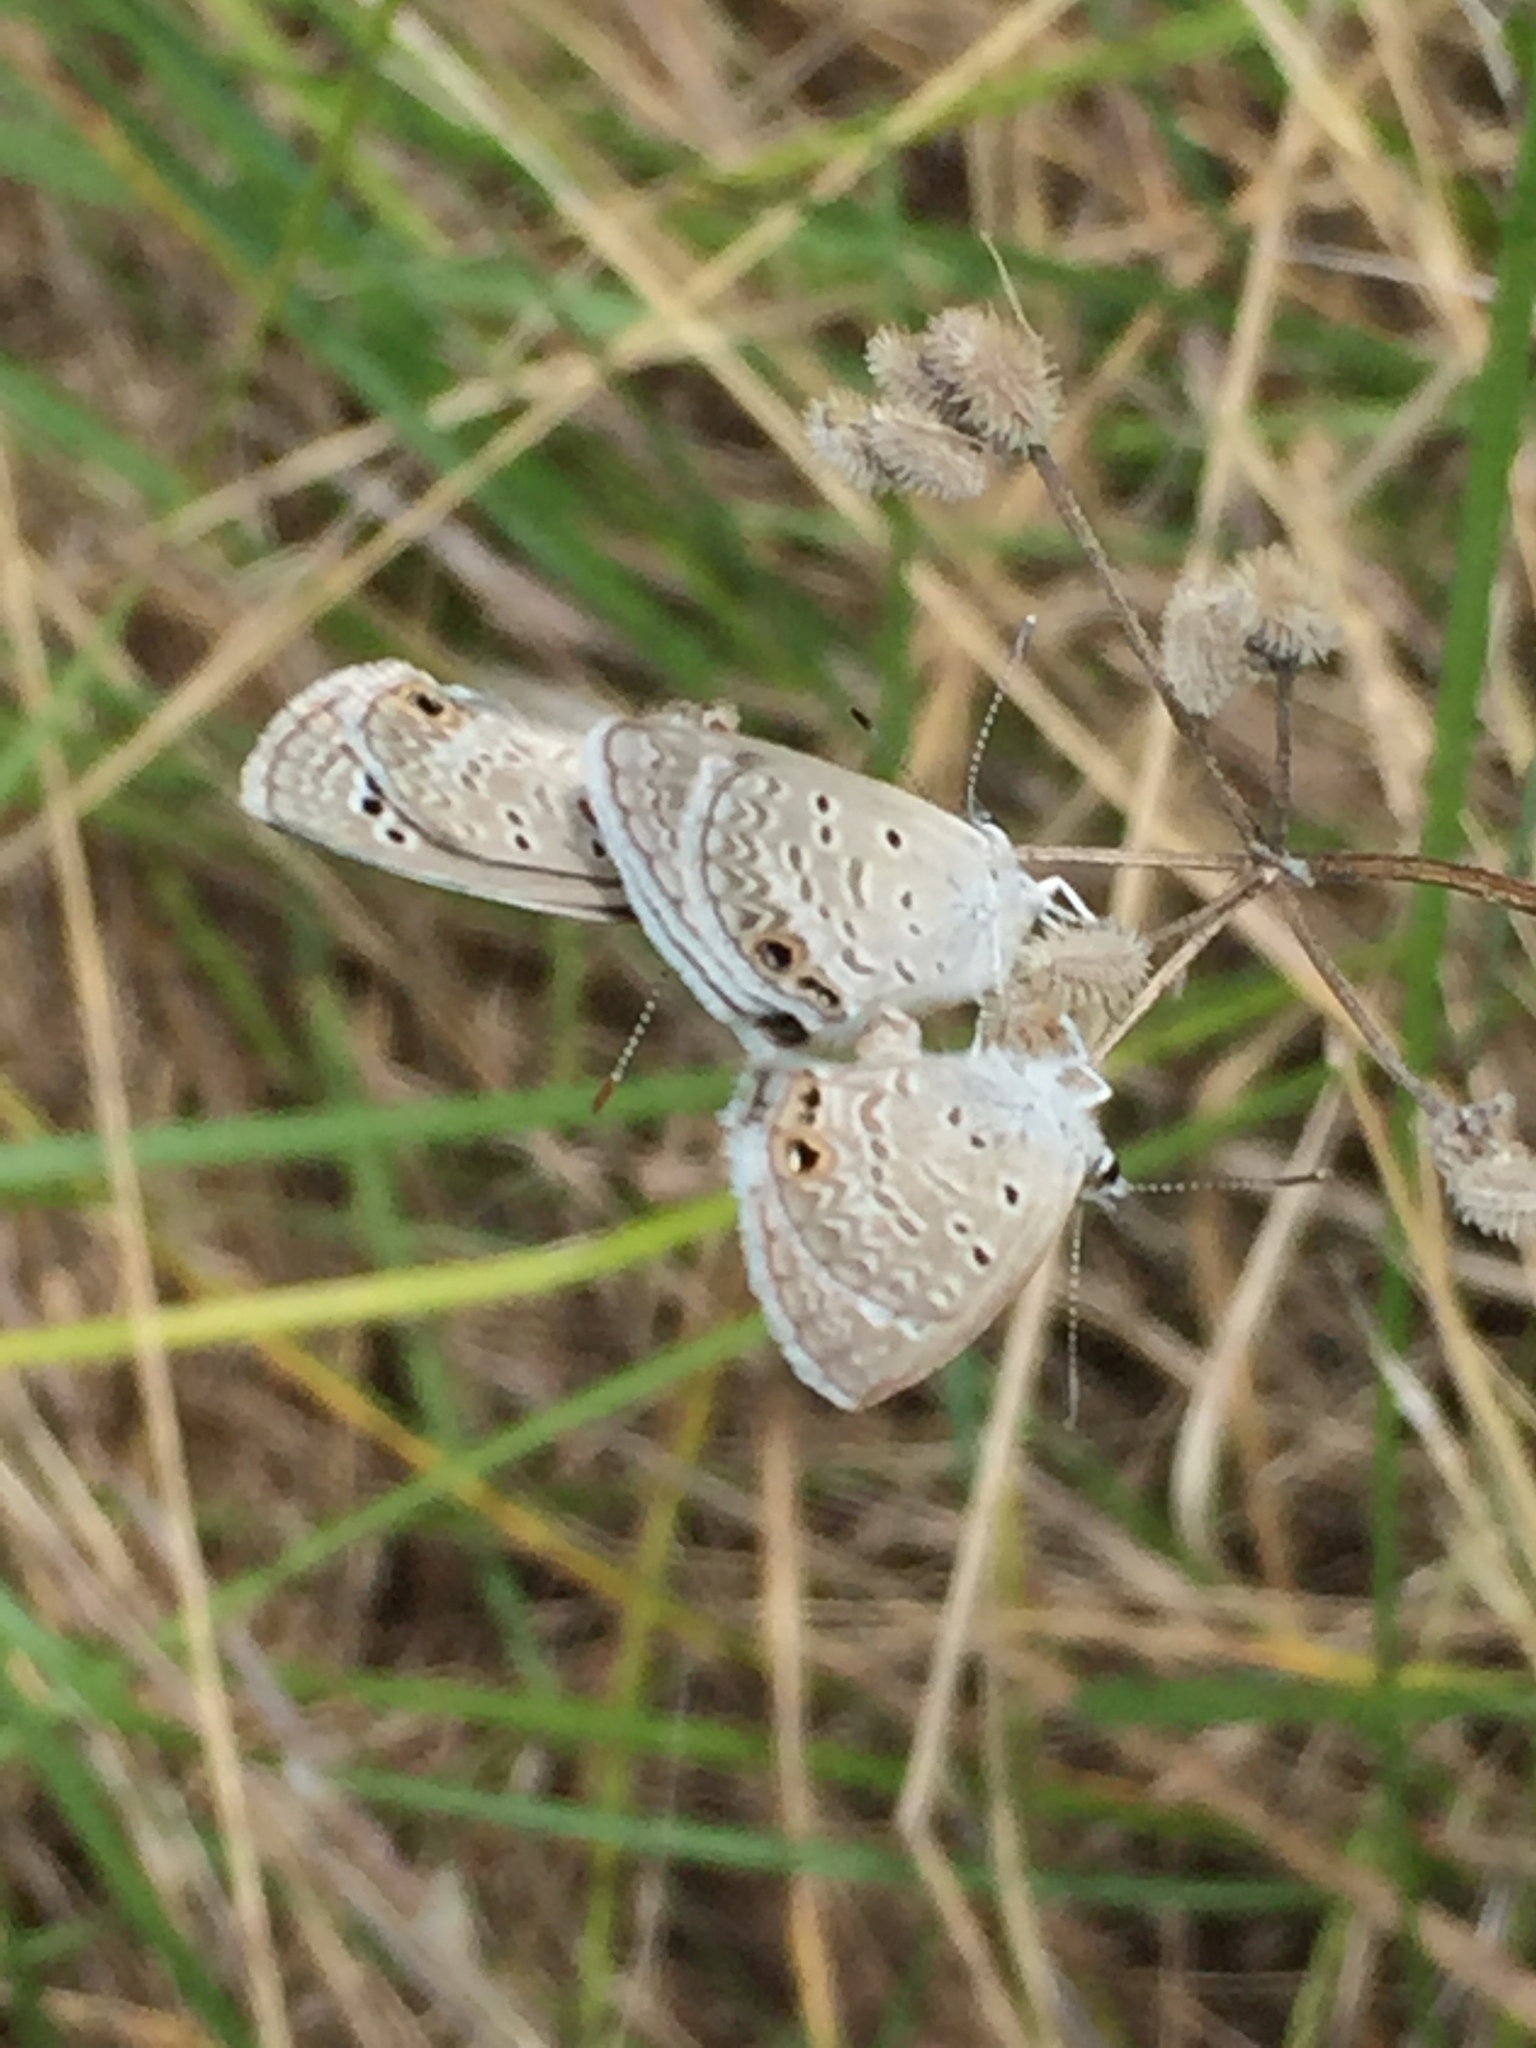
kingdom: Animalia
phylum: Arthropoda
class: Insecta
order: Lepidoptera
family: Lycaenidae
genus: Echinargus
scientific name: Echinargus isola
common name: Reakirt's blue
